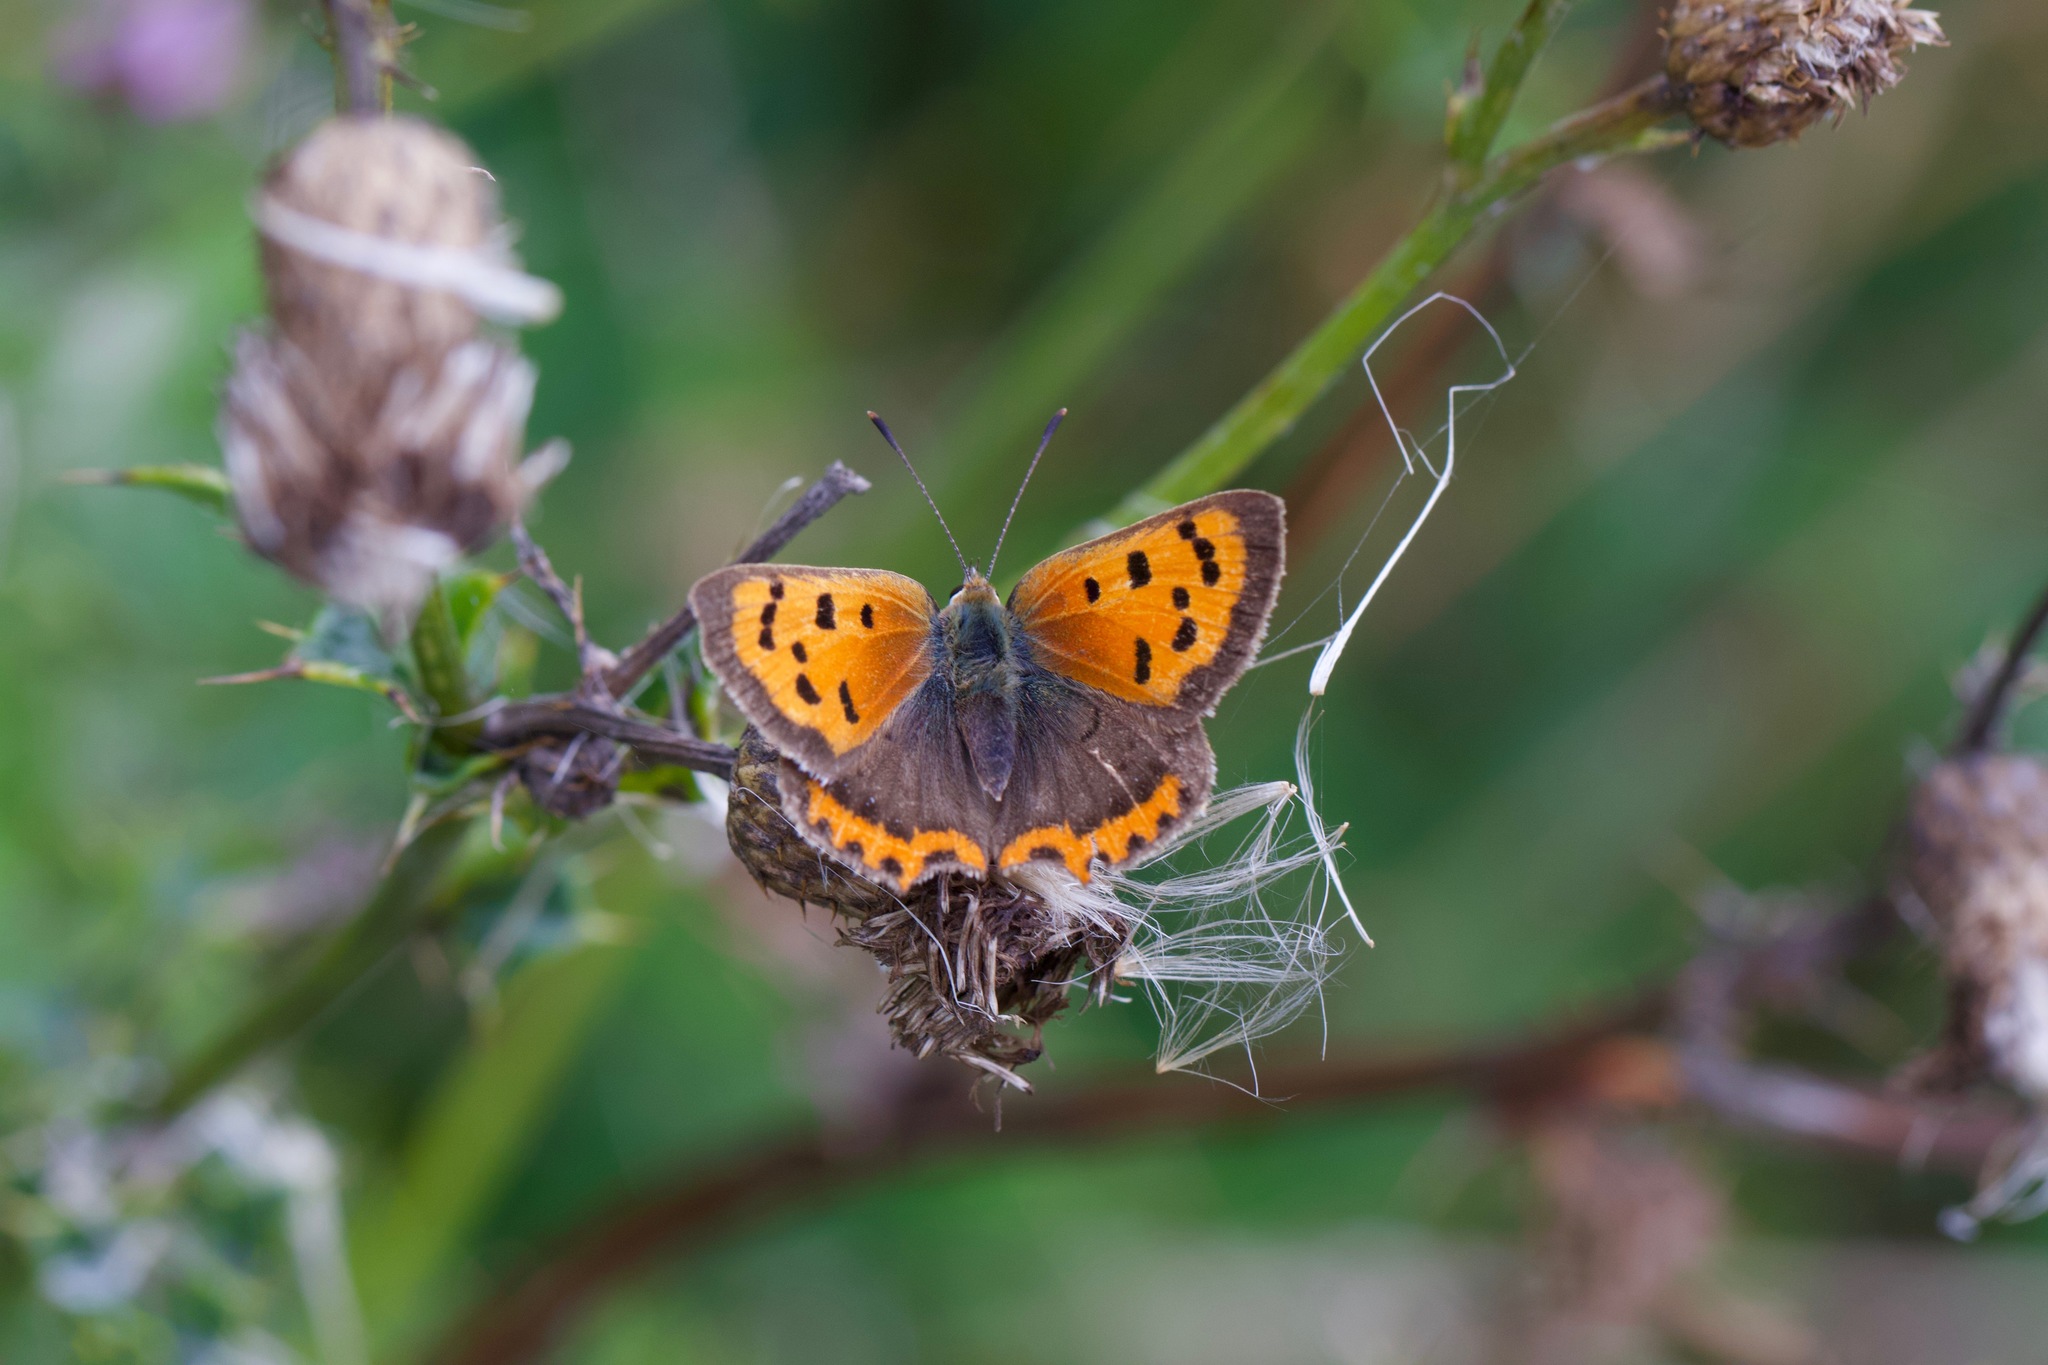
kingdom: Animalia
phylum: Arthropoda
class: Insecta
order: Lepidoptera
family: Lycaenidae
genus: Lycaena
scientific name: Lycaena phlaeas
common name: Small copper
